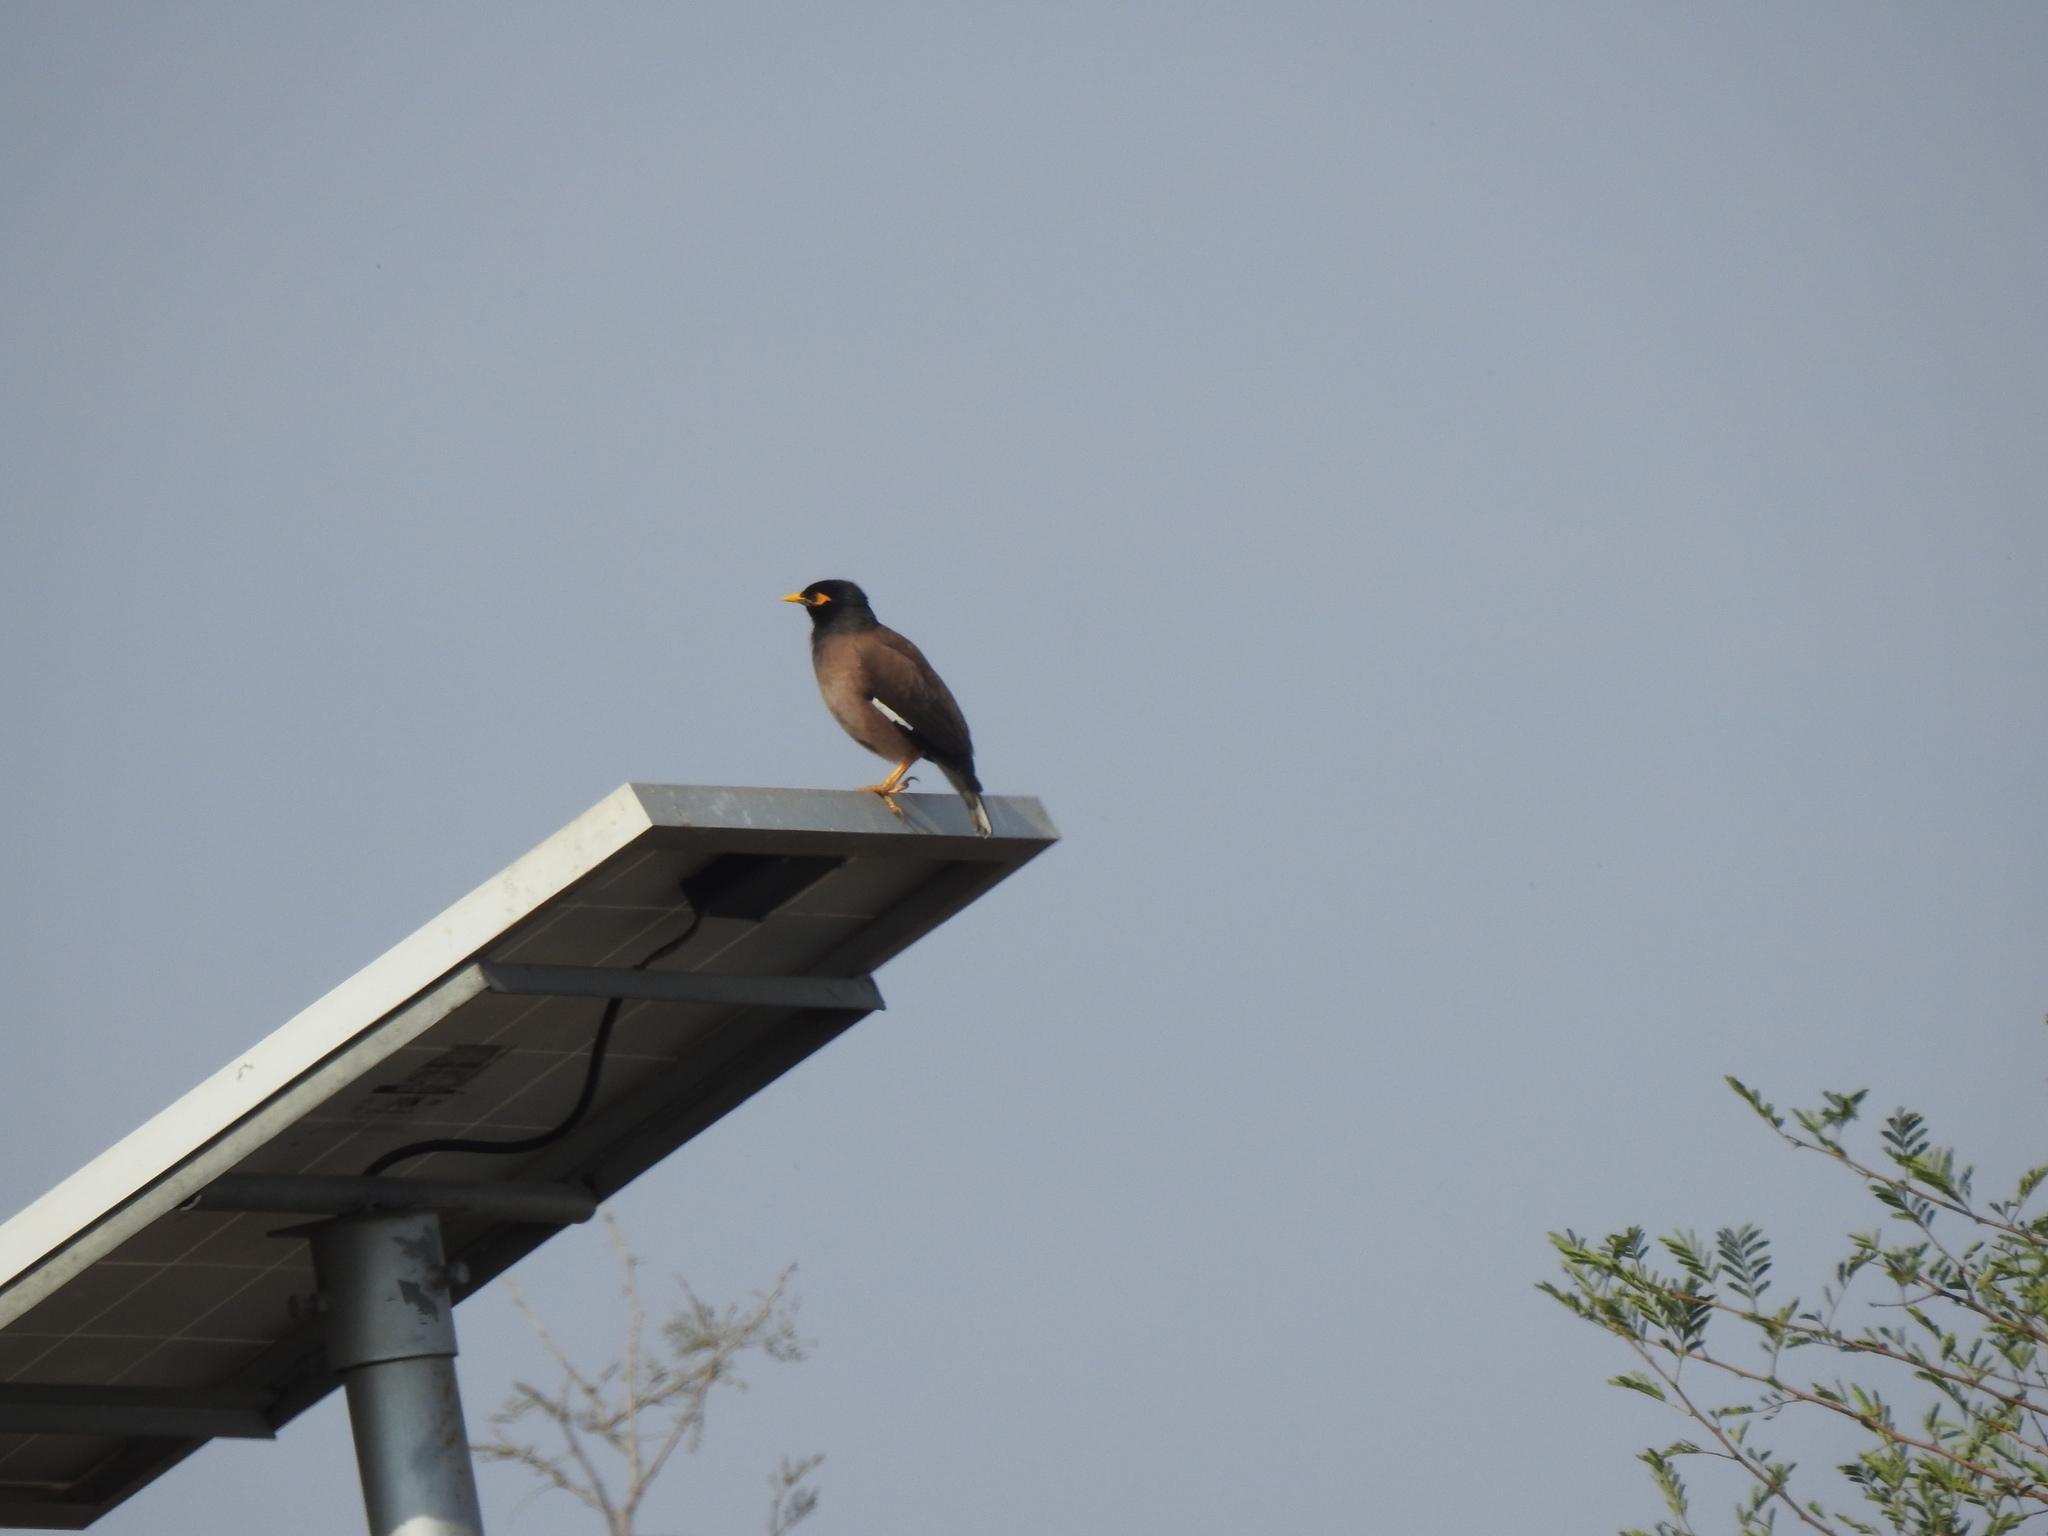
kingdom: Animalia
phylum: Chordata
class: Aves
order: Passeriformes
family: Sturnidae
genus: Acridotheres
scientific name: Acridotheres tristis
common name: Common myna
